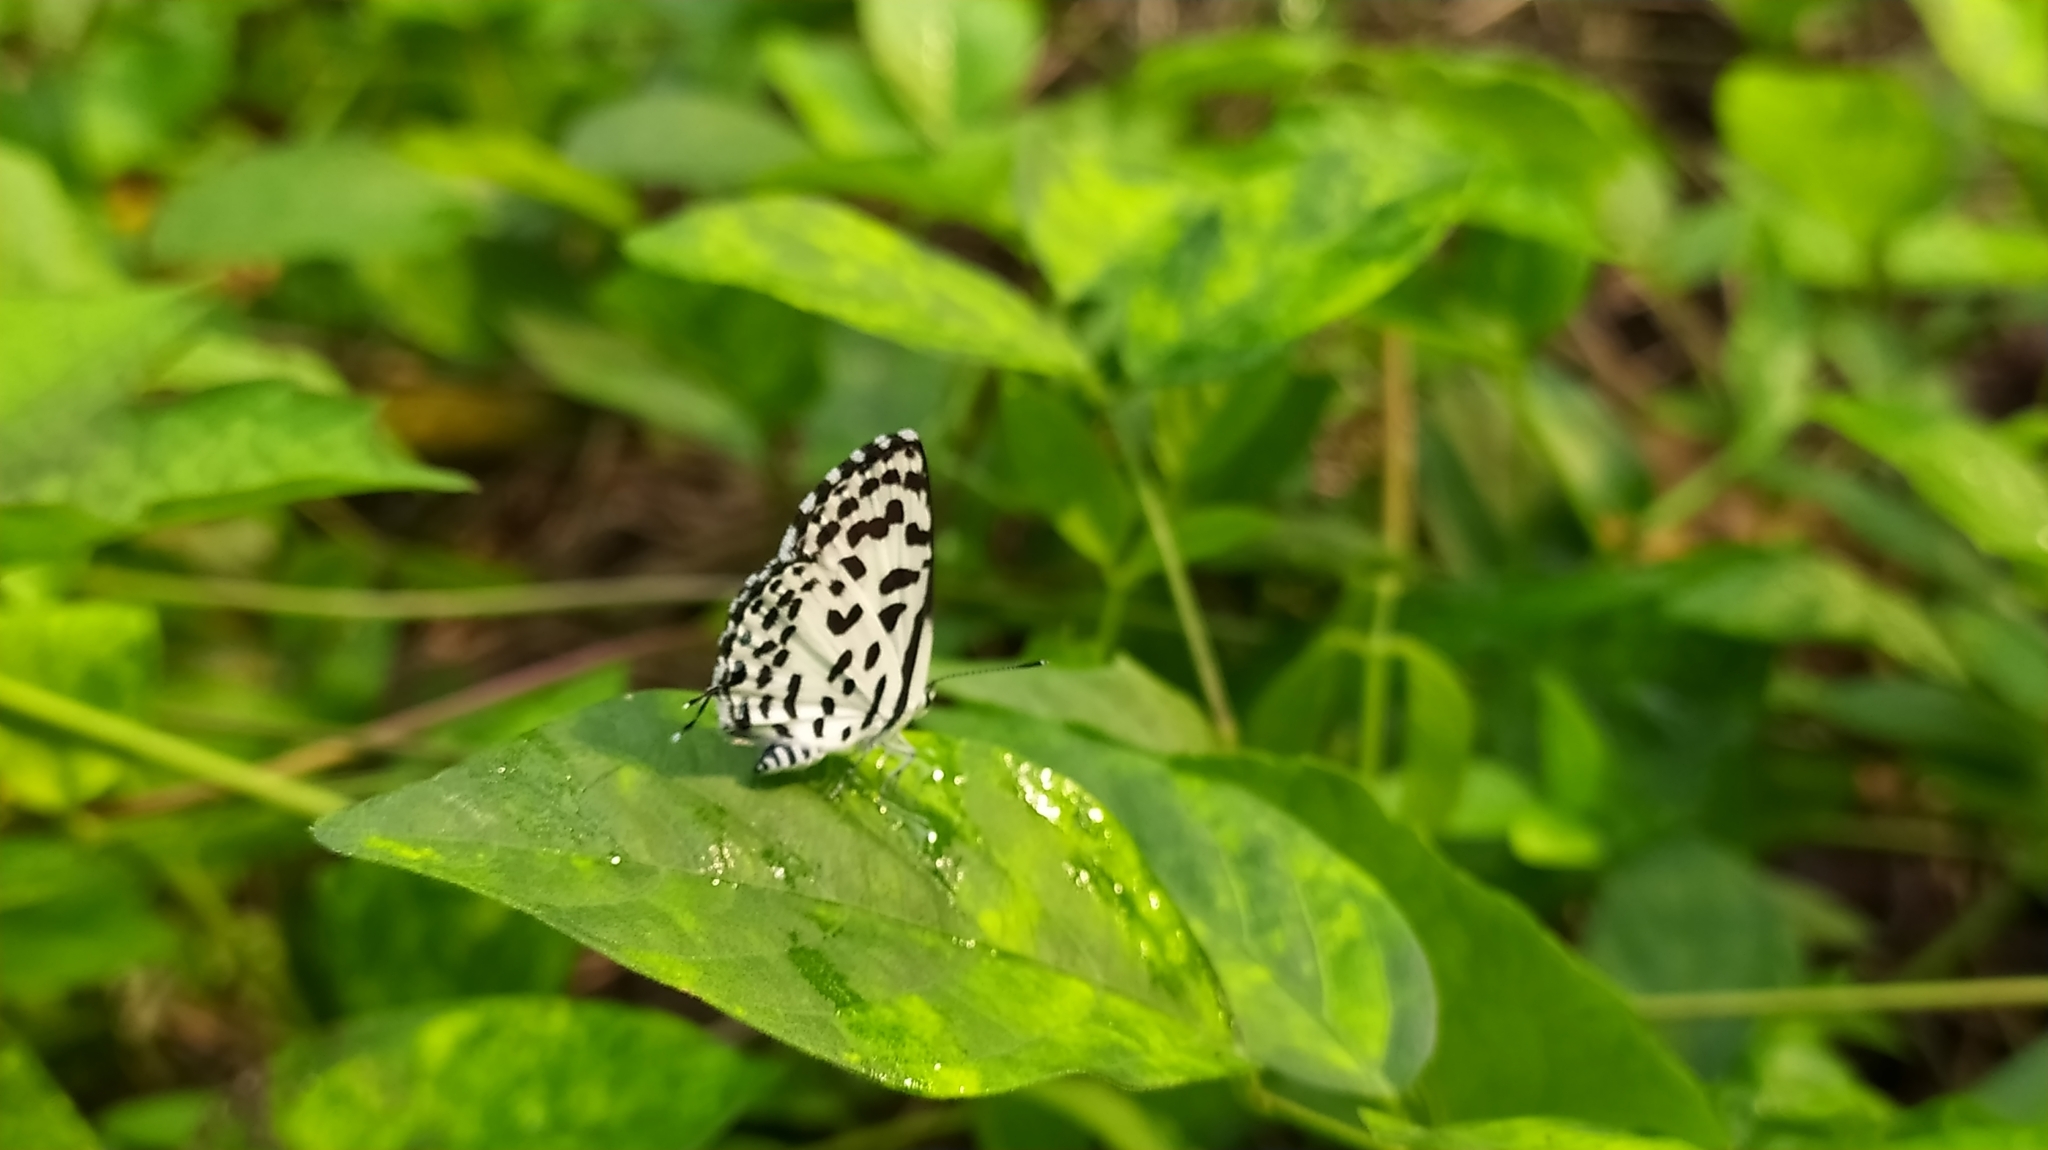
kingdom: Animalia
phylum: Arthropoda
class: Insecta
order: Lepidoptera
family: Lycaenidae
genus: Castalius
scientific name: Castalius rosimon
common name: Common pierrot
